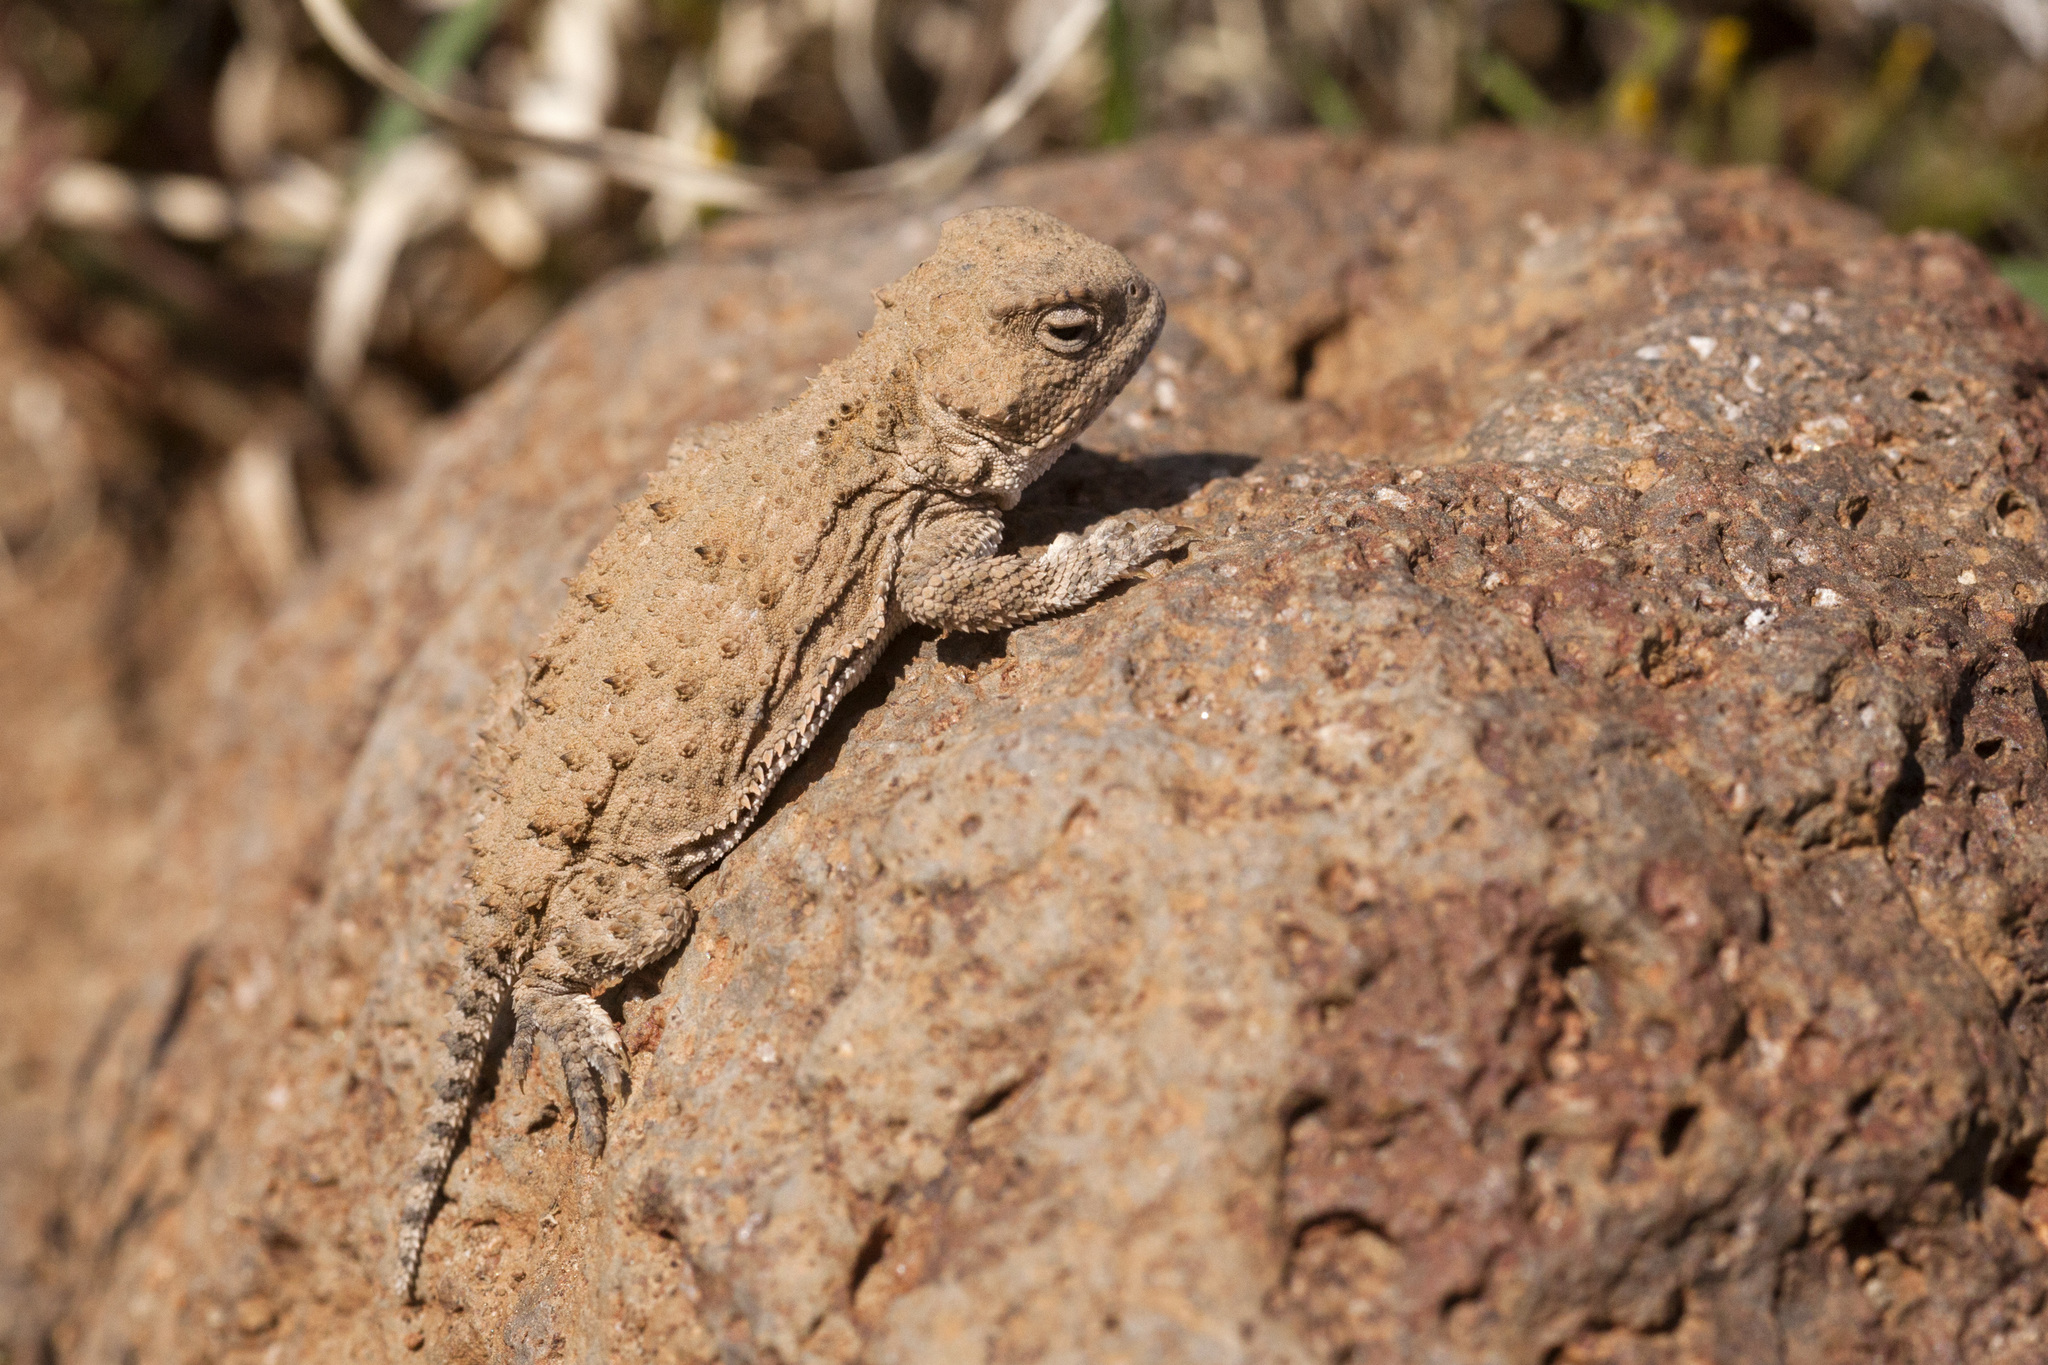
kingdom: Animalia
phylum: Chordata
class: Squamata
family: Phrynosomatidae
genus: Phrynosoma
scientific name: Phrynosoma hernandesi
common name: Greater short-horned lizard
